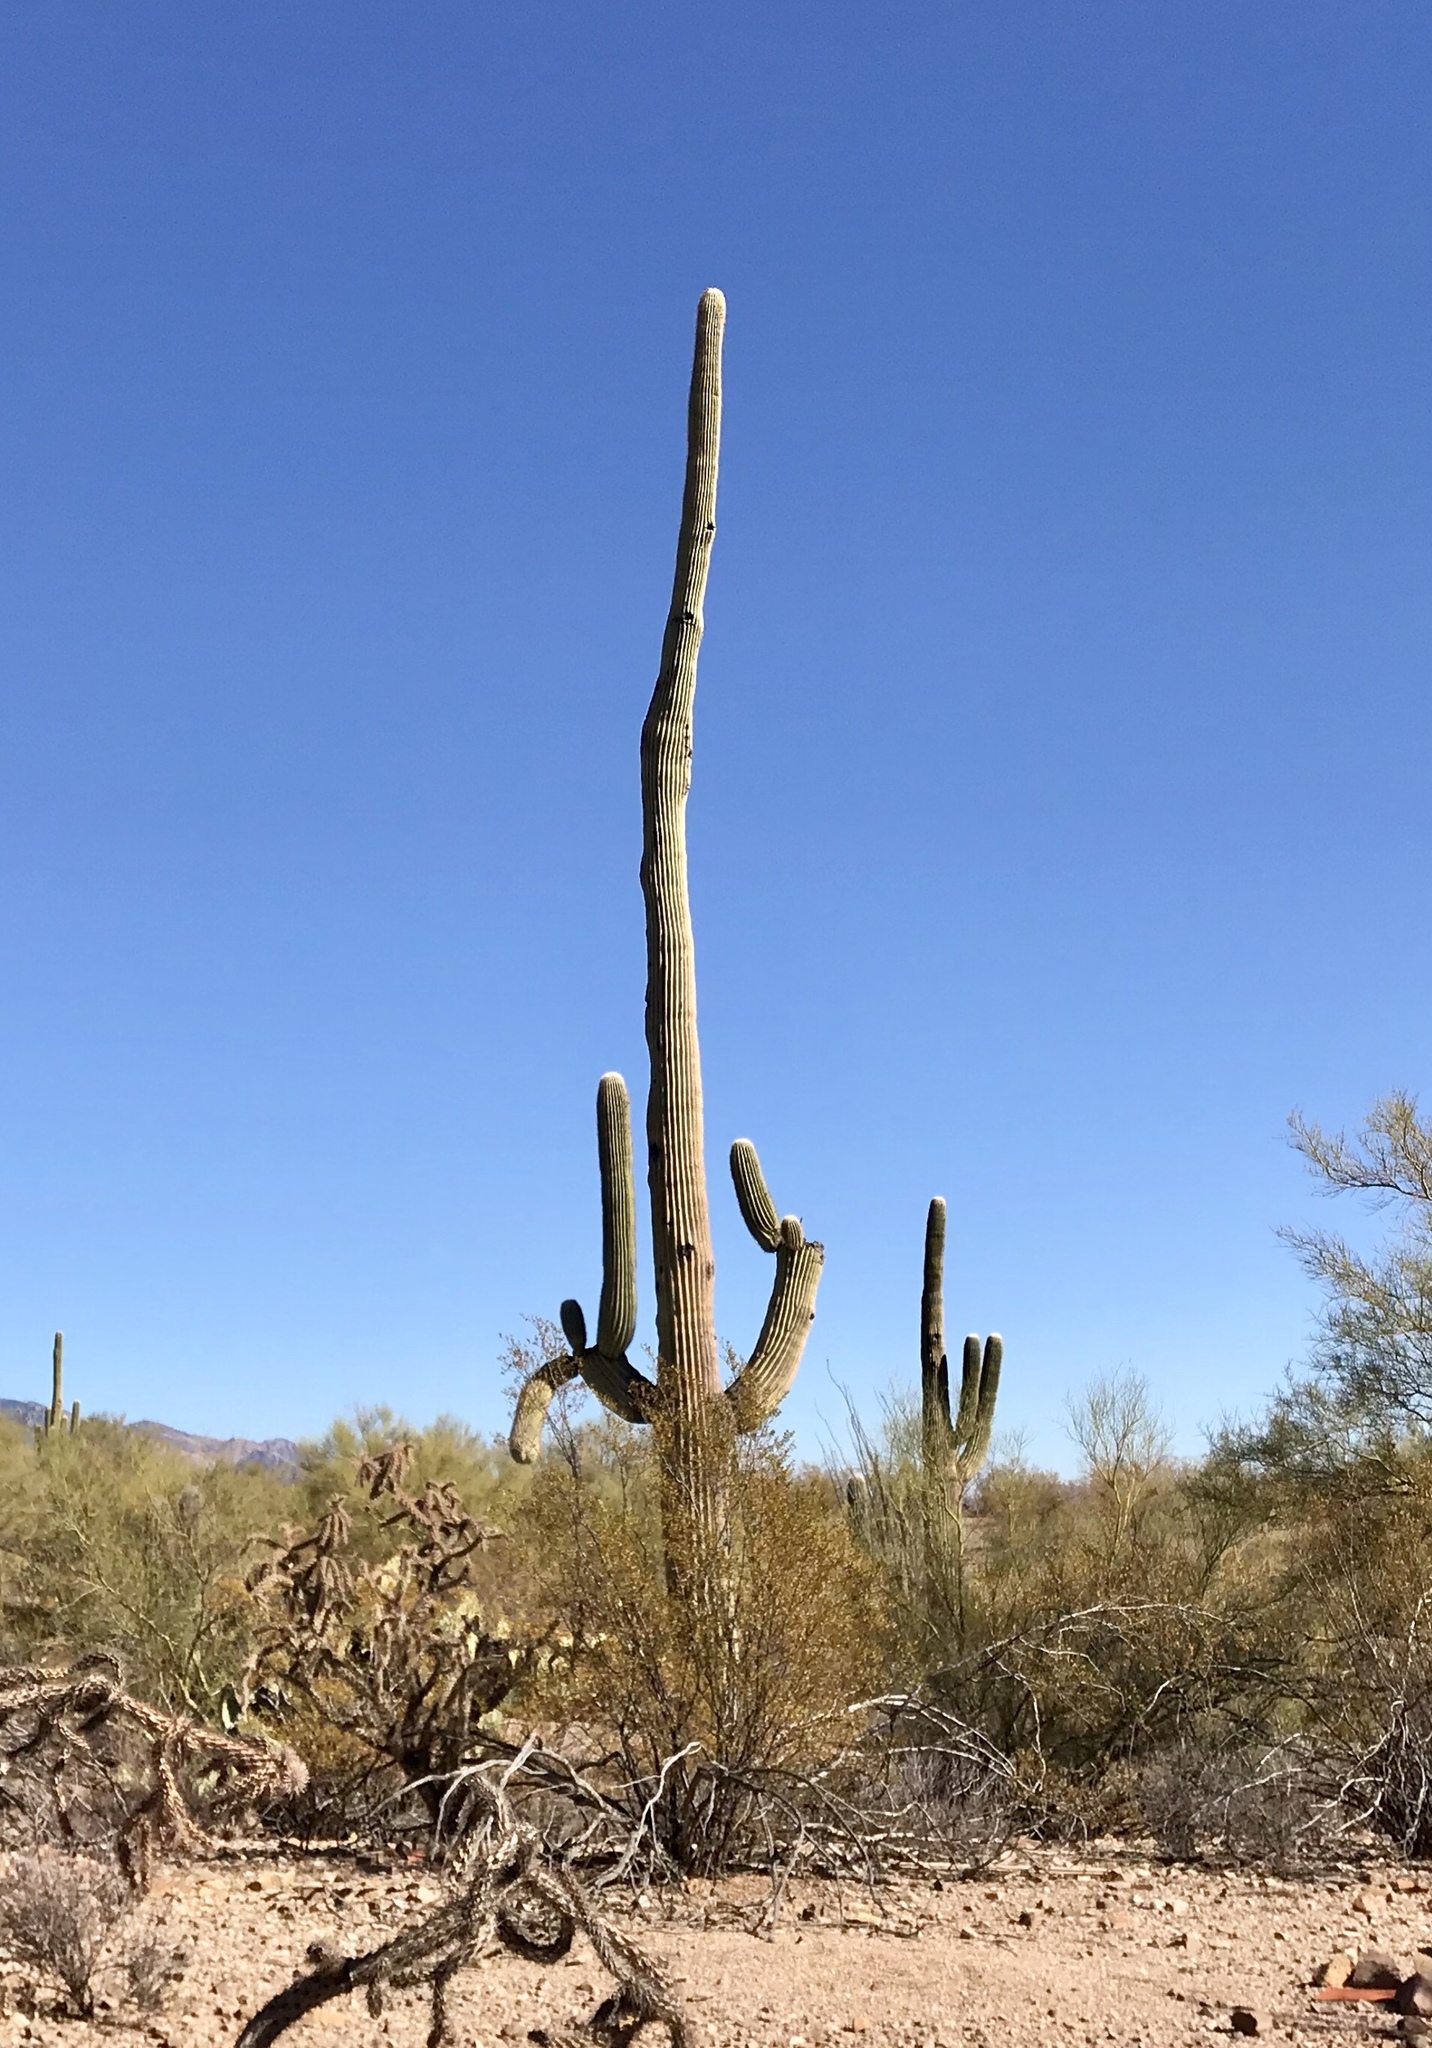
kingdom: Plantae
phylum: Tracheophyta
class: Magnoliopsida
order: Caryophyllales
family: Cactaceae
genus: Carnegiea
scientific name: Carnegiea gigantea
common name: Saguaro
